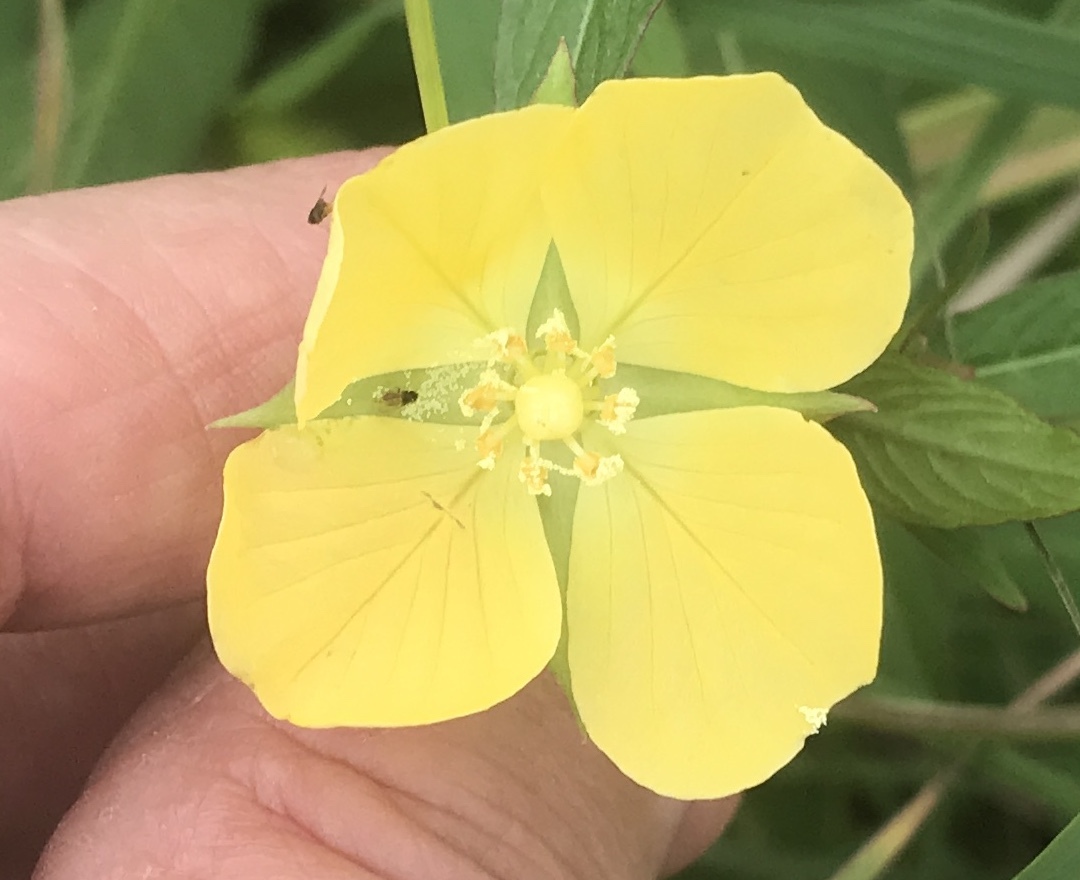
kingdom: Plantae
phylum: Tracheophyta
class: Magnoliopsida
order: Myrtales
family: Onagraceae
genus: Ludwigia
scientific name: Ludwigia octovalvis
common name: Water-primrose
